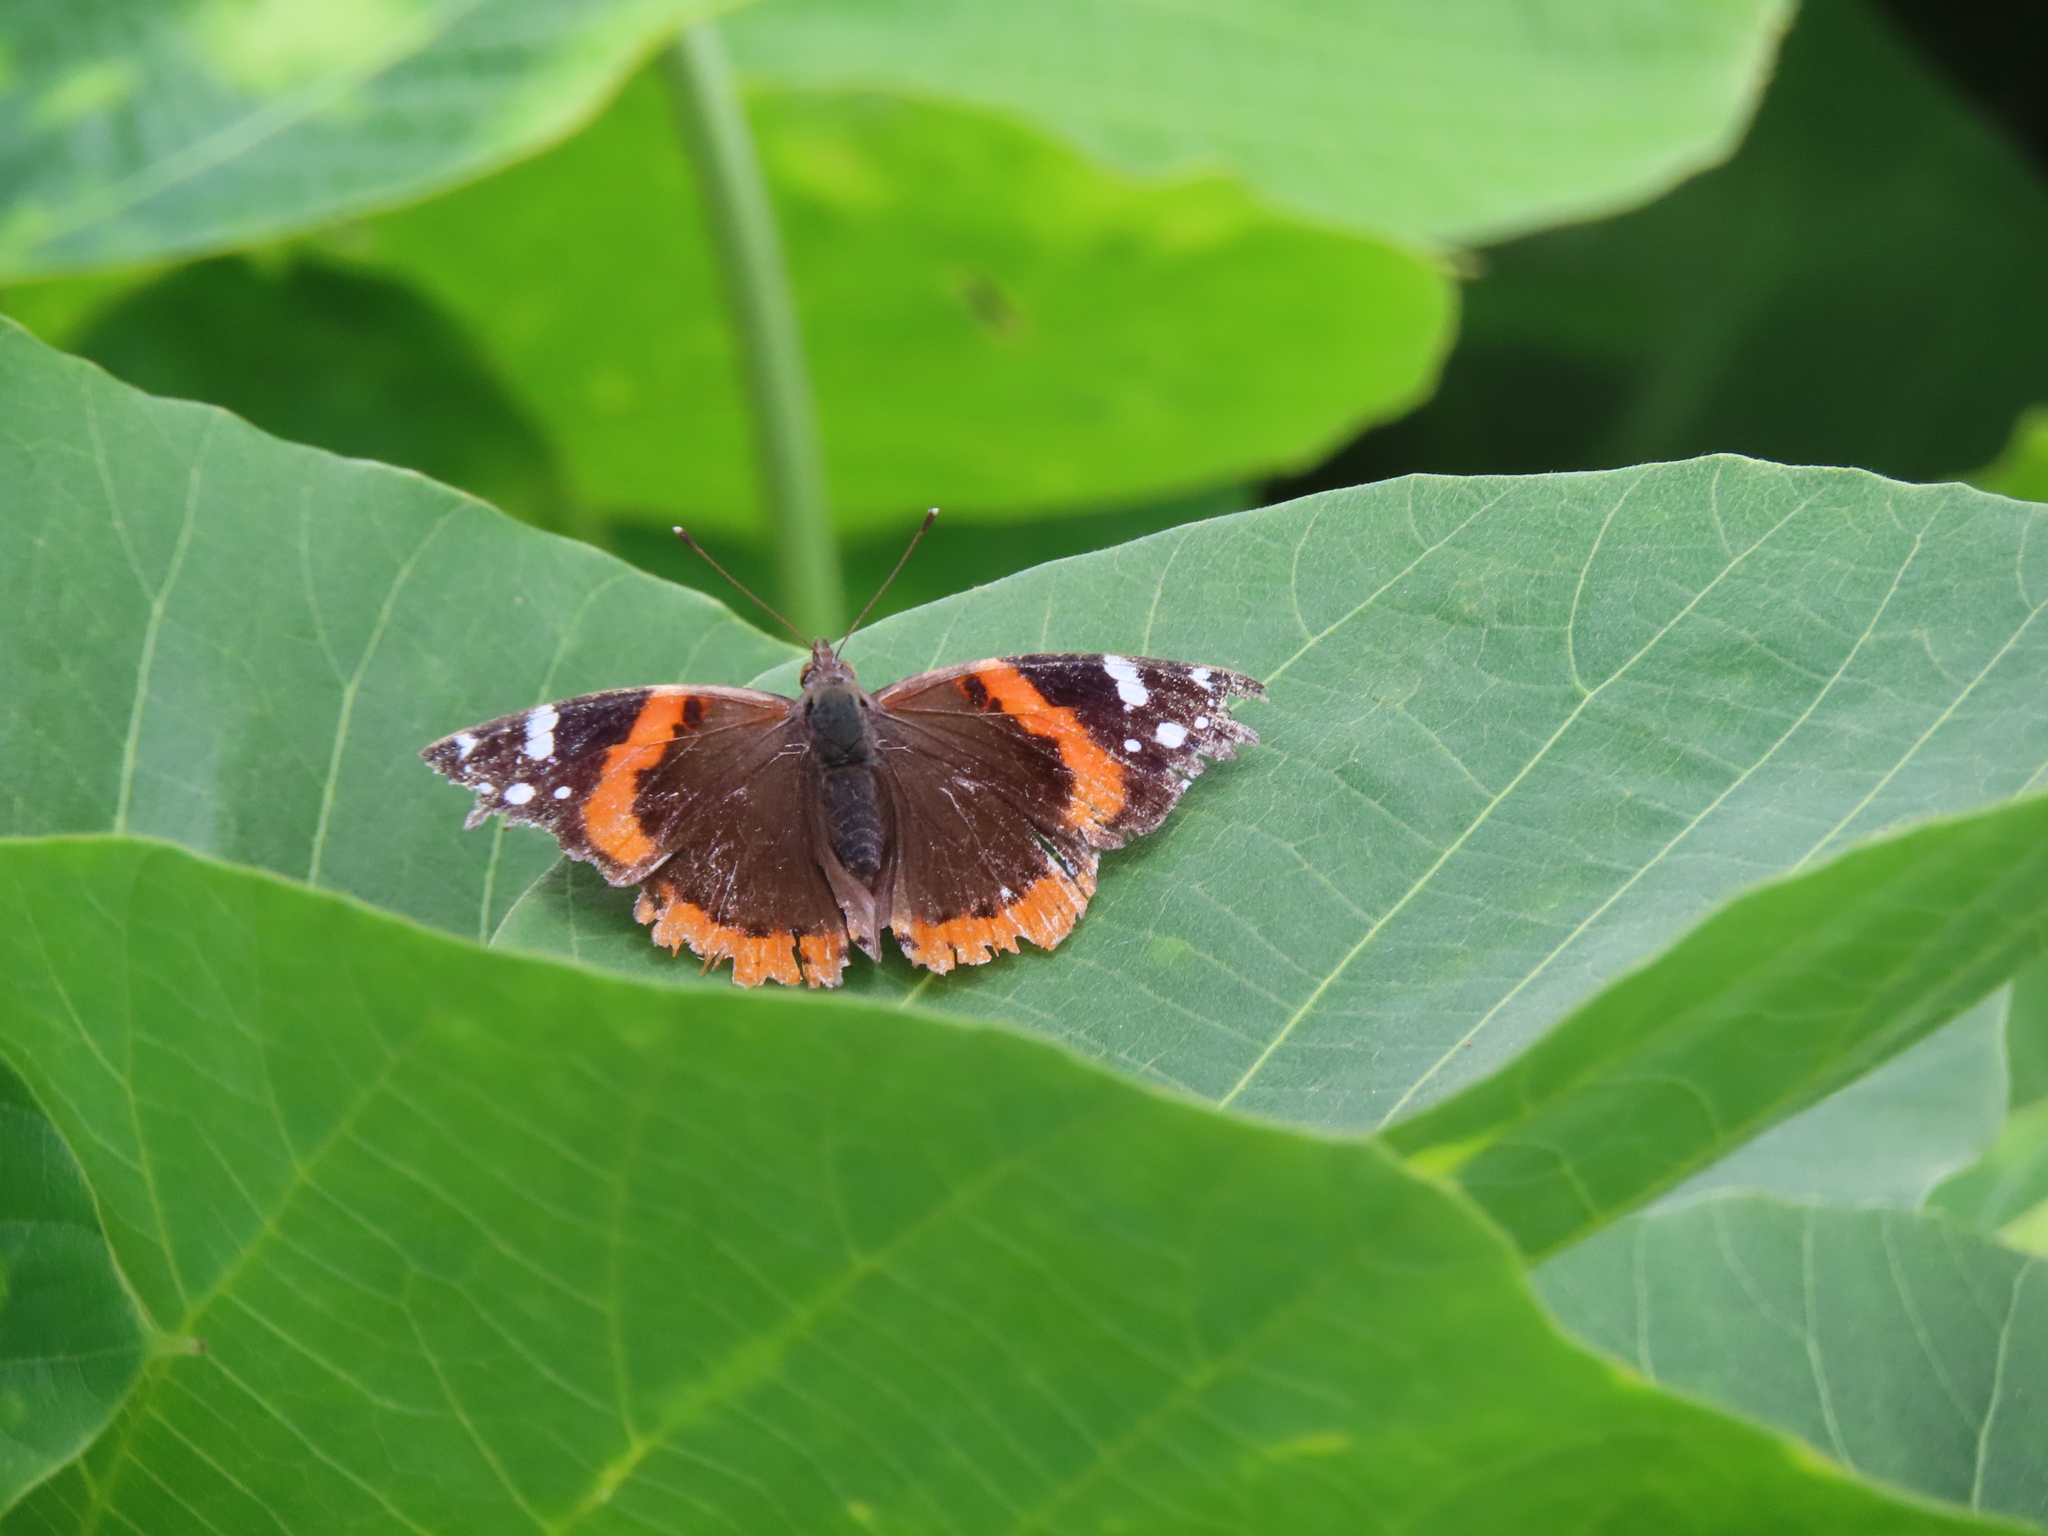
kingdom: Animalia
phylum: Arthropoda
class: Insecta
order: Lepidoptera
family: Nymphalidae
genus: Vanessa
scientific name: Vanessa atalanta
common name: Red admiral
